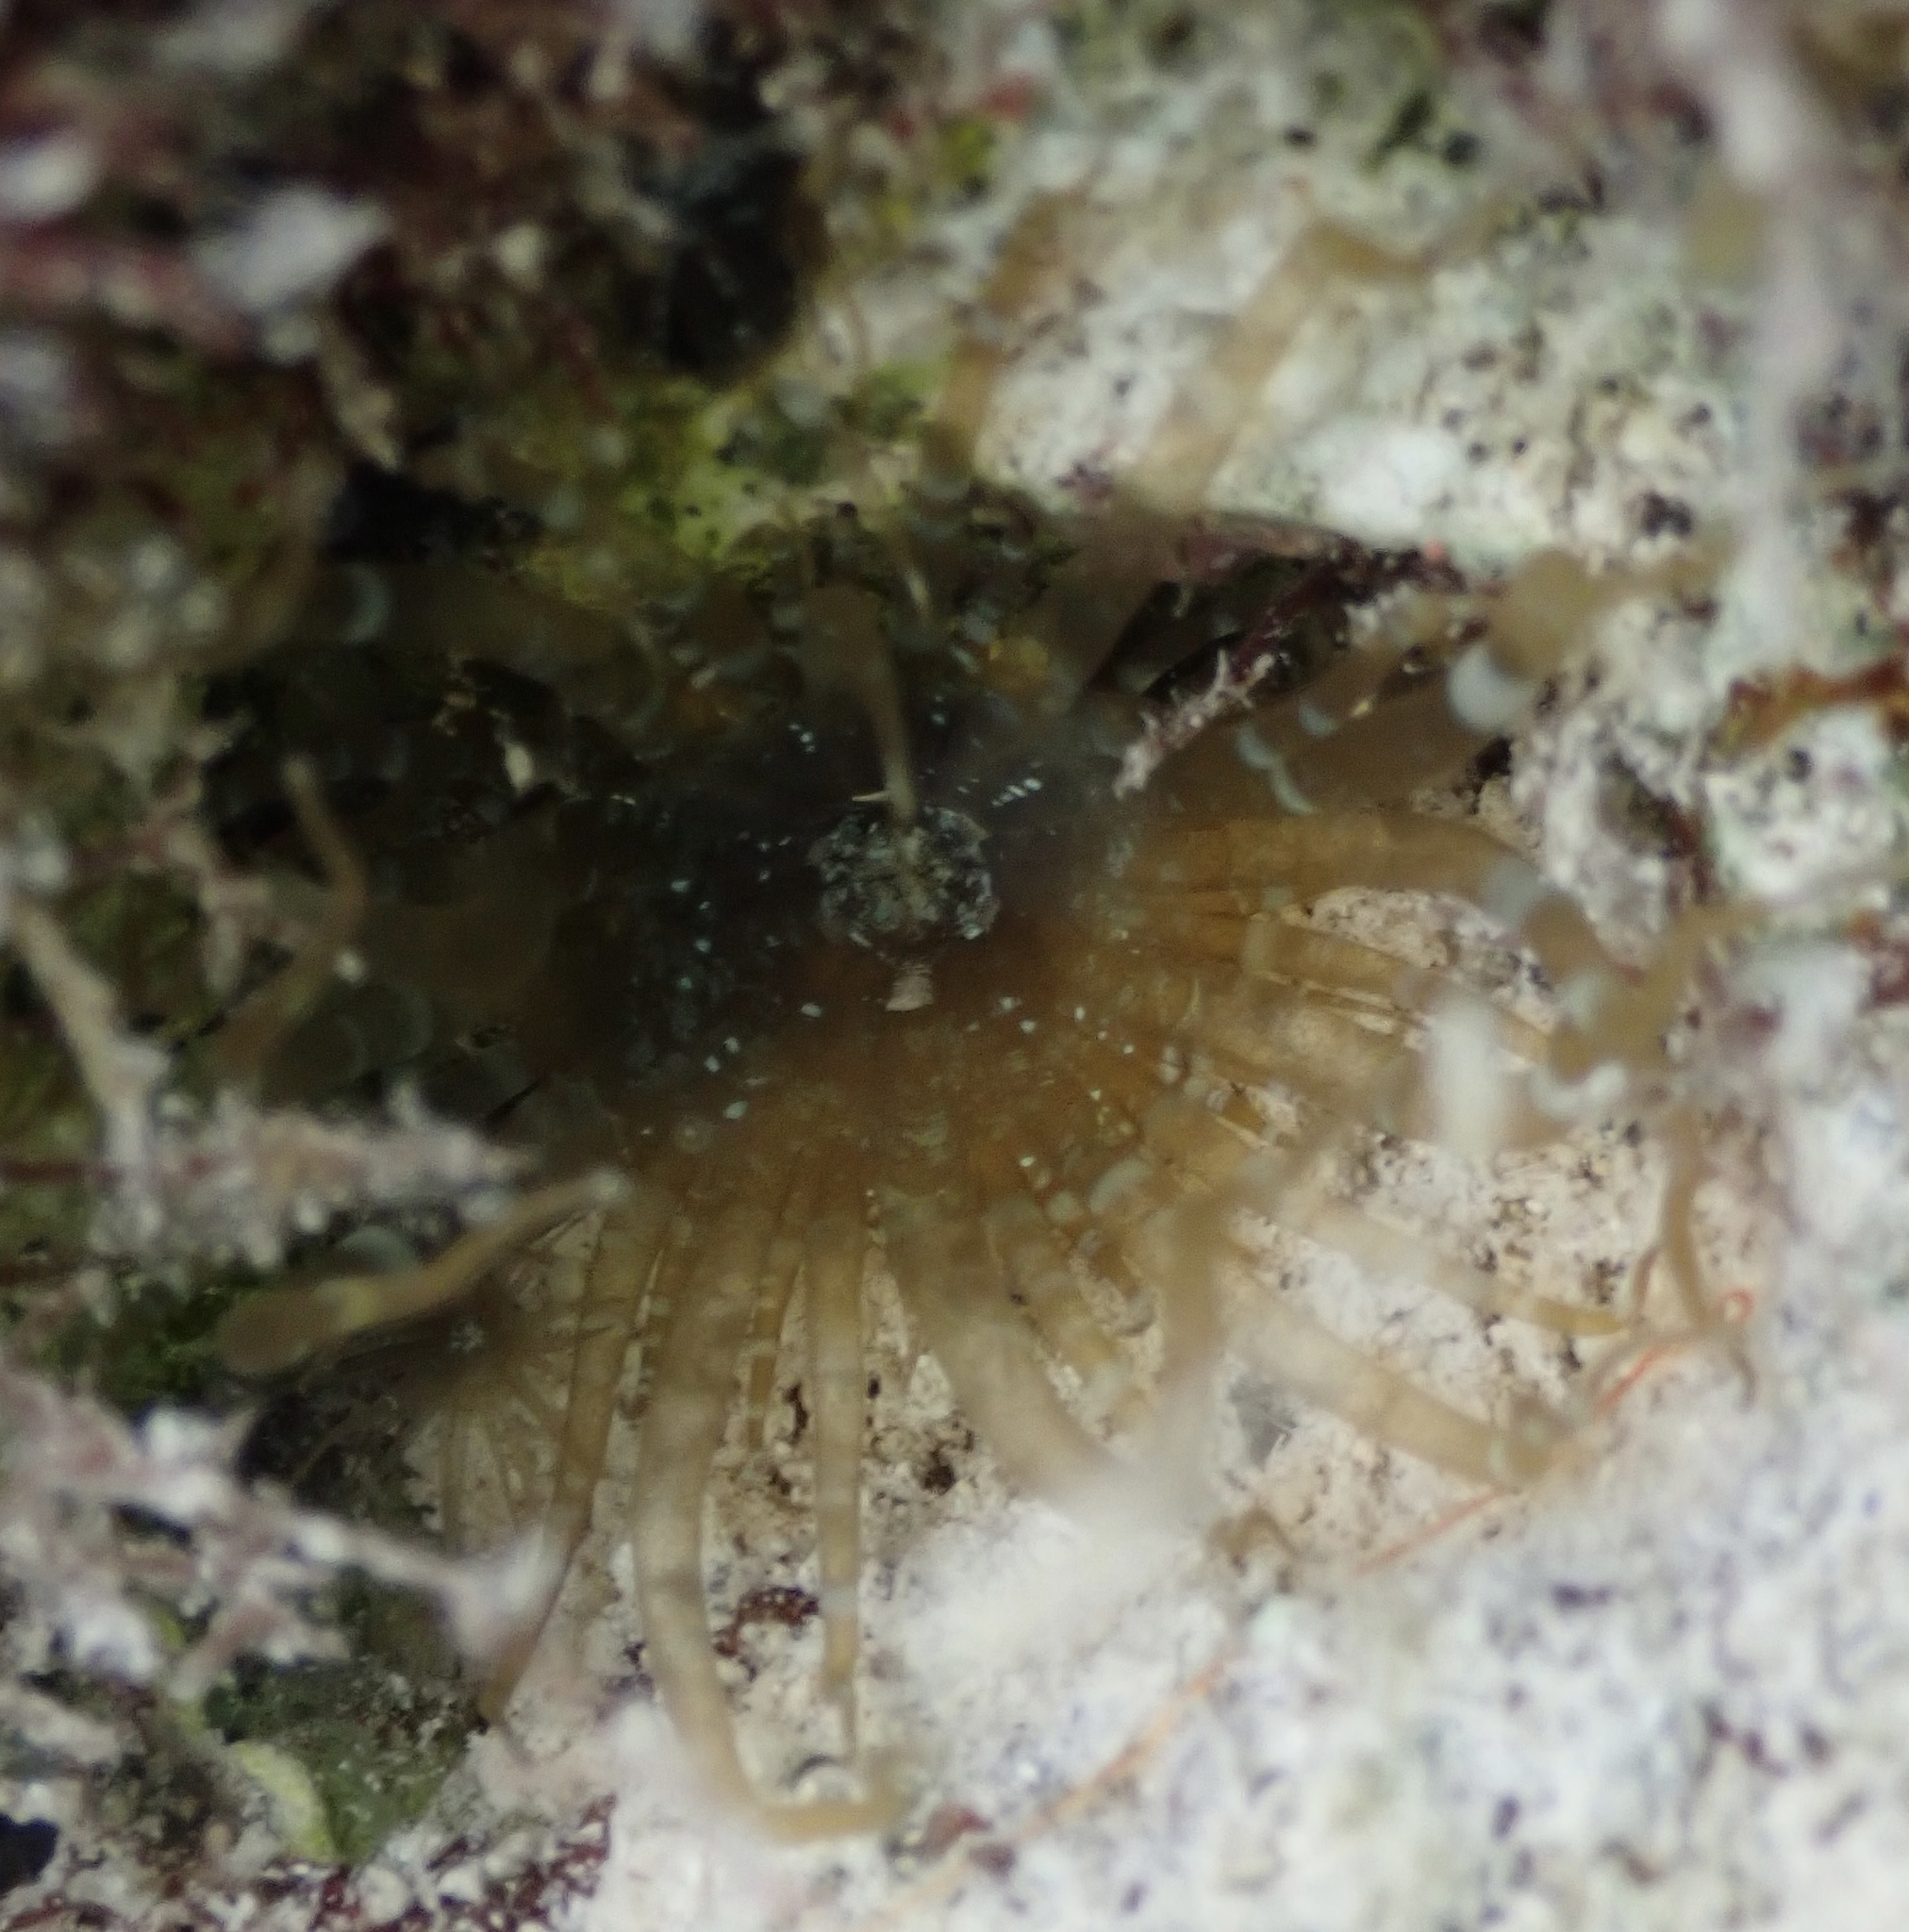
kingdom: Animalia
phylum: Cnidaria
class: Anthozoa
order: Actiniaria
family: Aiptasiidae
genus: Exaiptasia
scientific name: Exaiptasia diaphana
